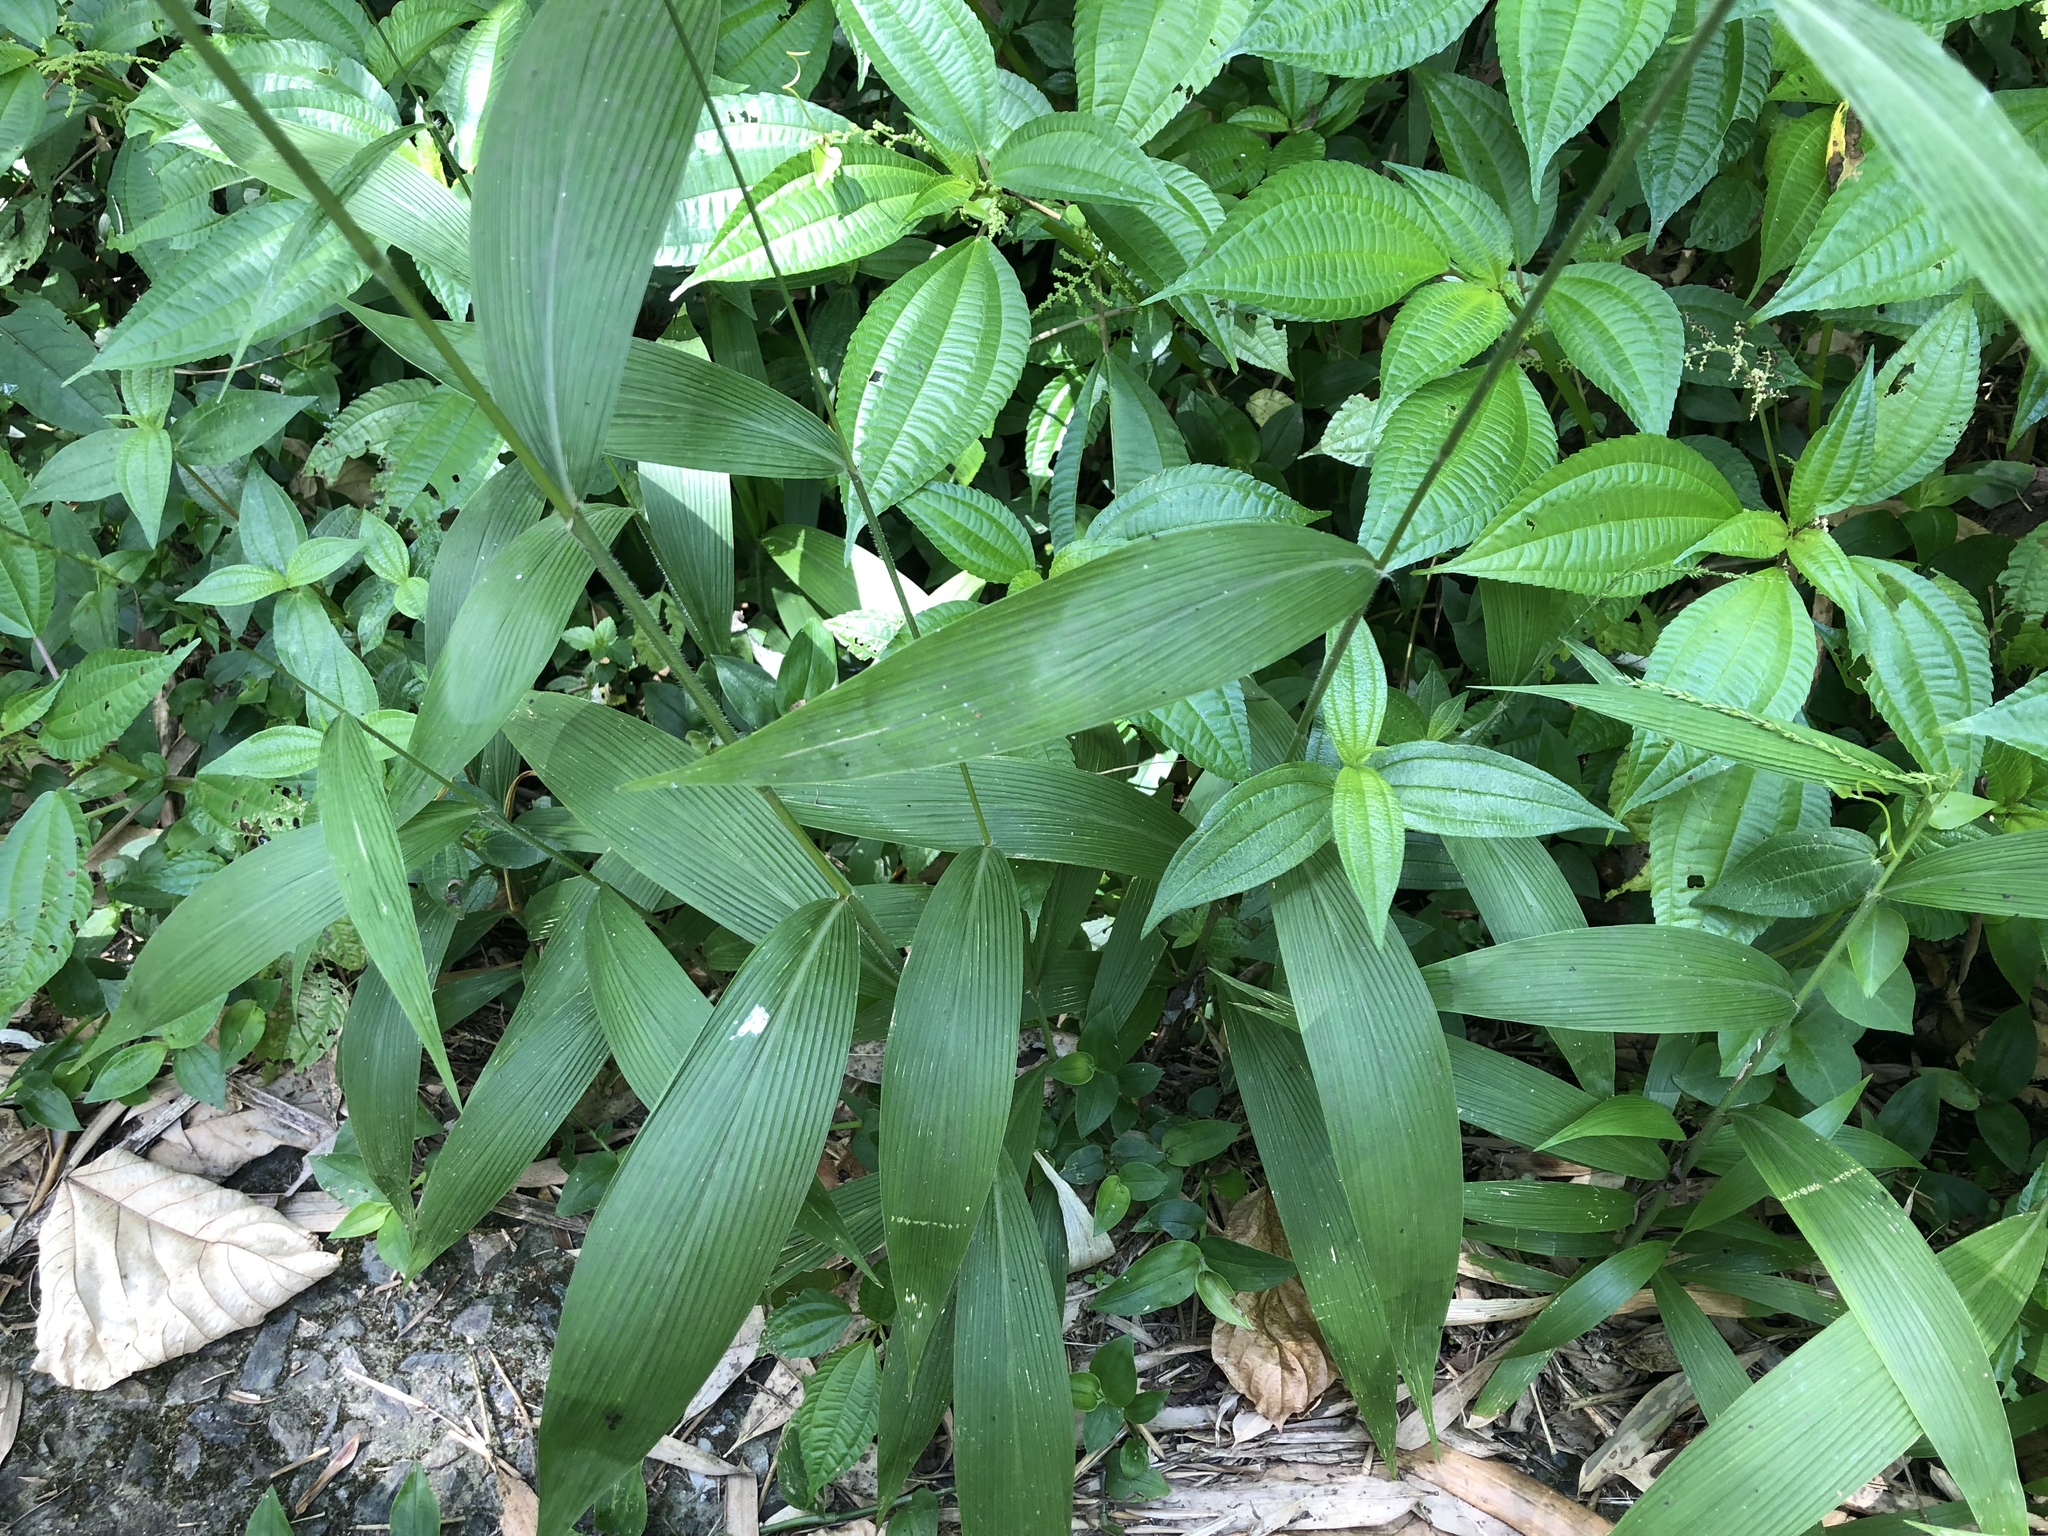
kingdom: Plantae
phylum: Tracheophyta
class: Liliopsida
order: Poales
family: Poaceae
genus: Setaria
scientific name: Setaria palmifolia
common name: Broadleaved bristlegrass
